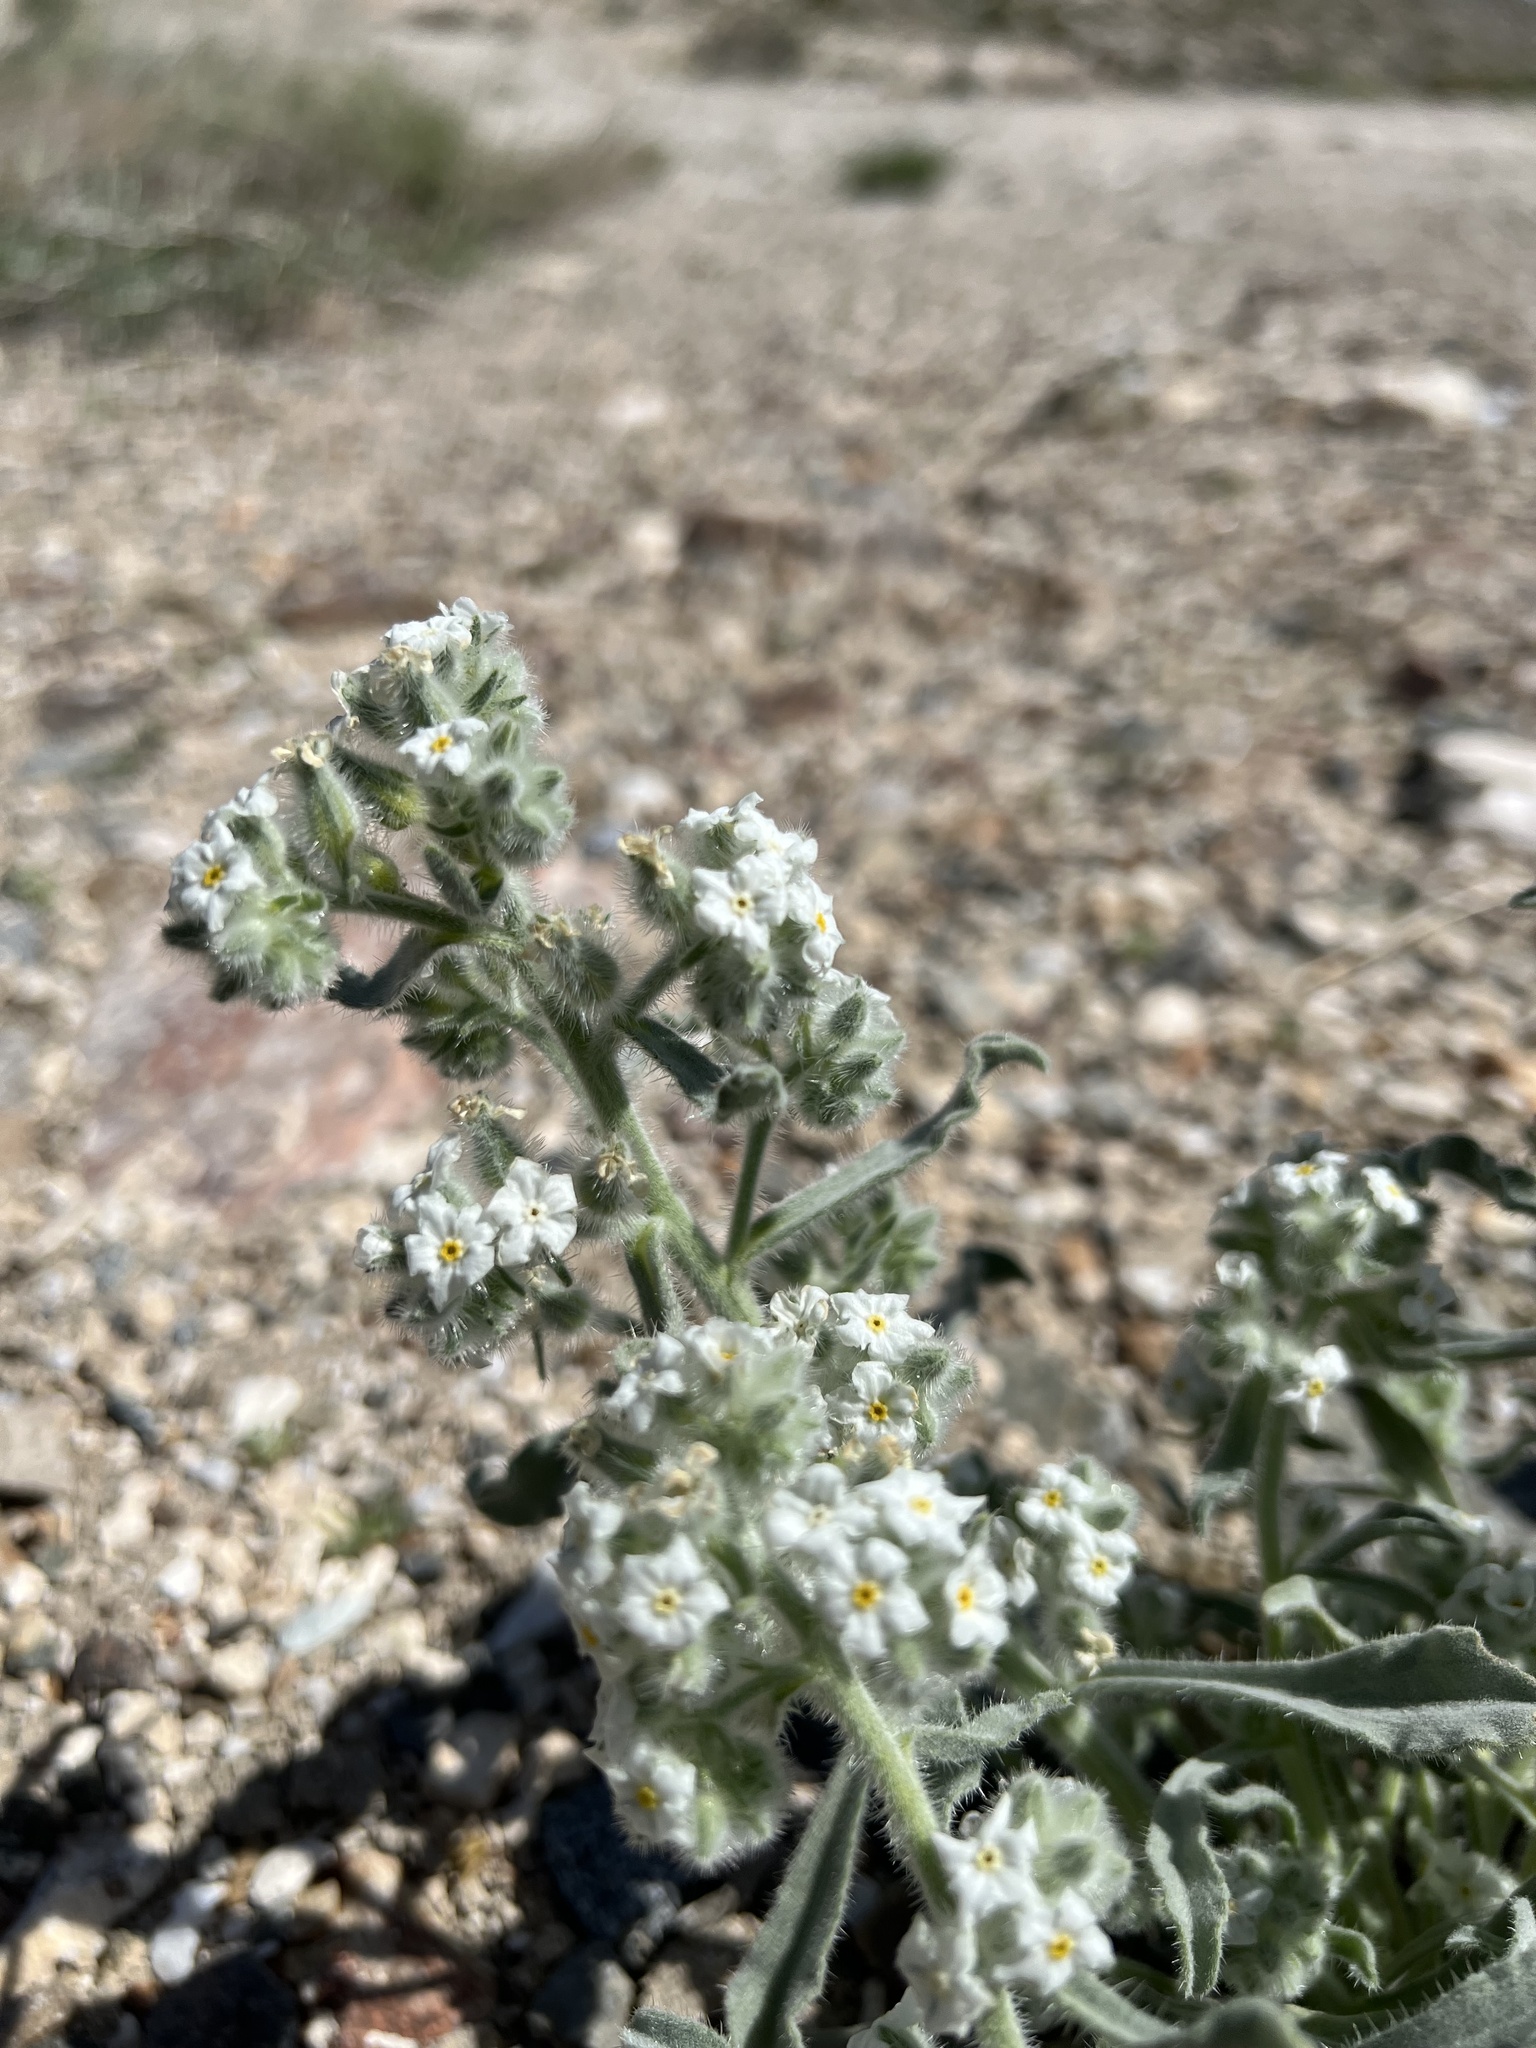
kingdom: Plantae
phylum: Tracheophyta
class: Magnoliopsida
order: Boraginales
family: Boraginaceae
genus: Oreocarya
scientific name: Oreocarya hoffmannii
